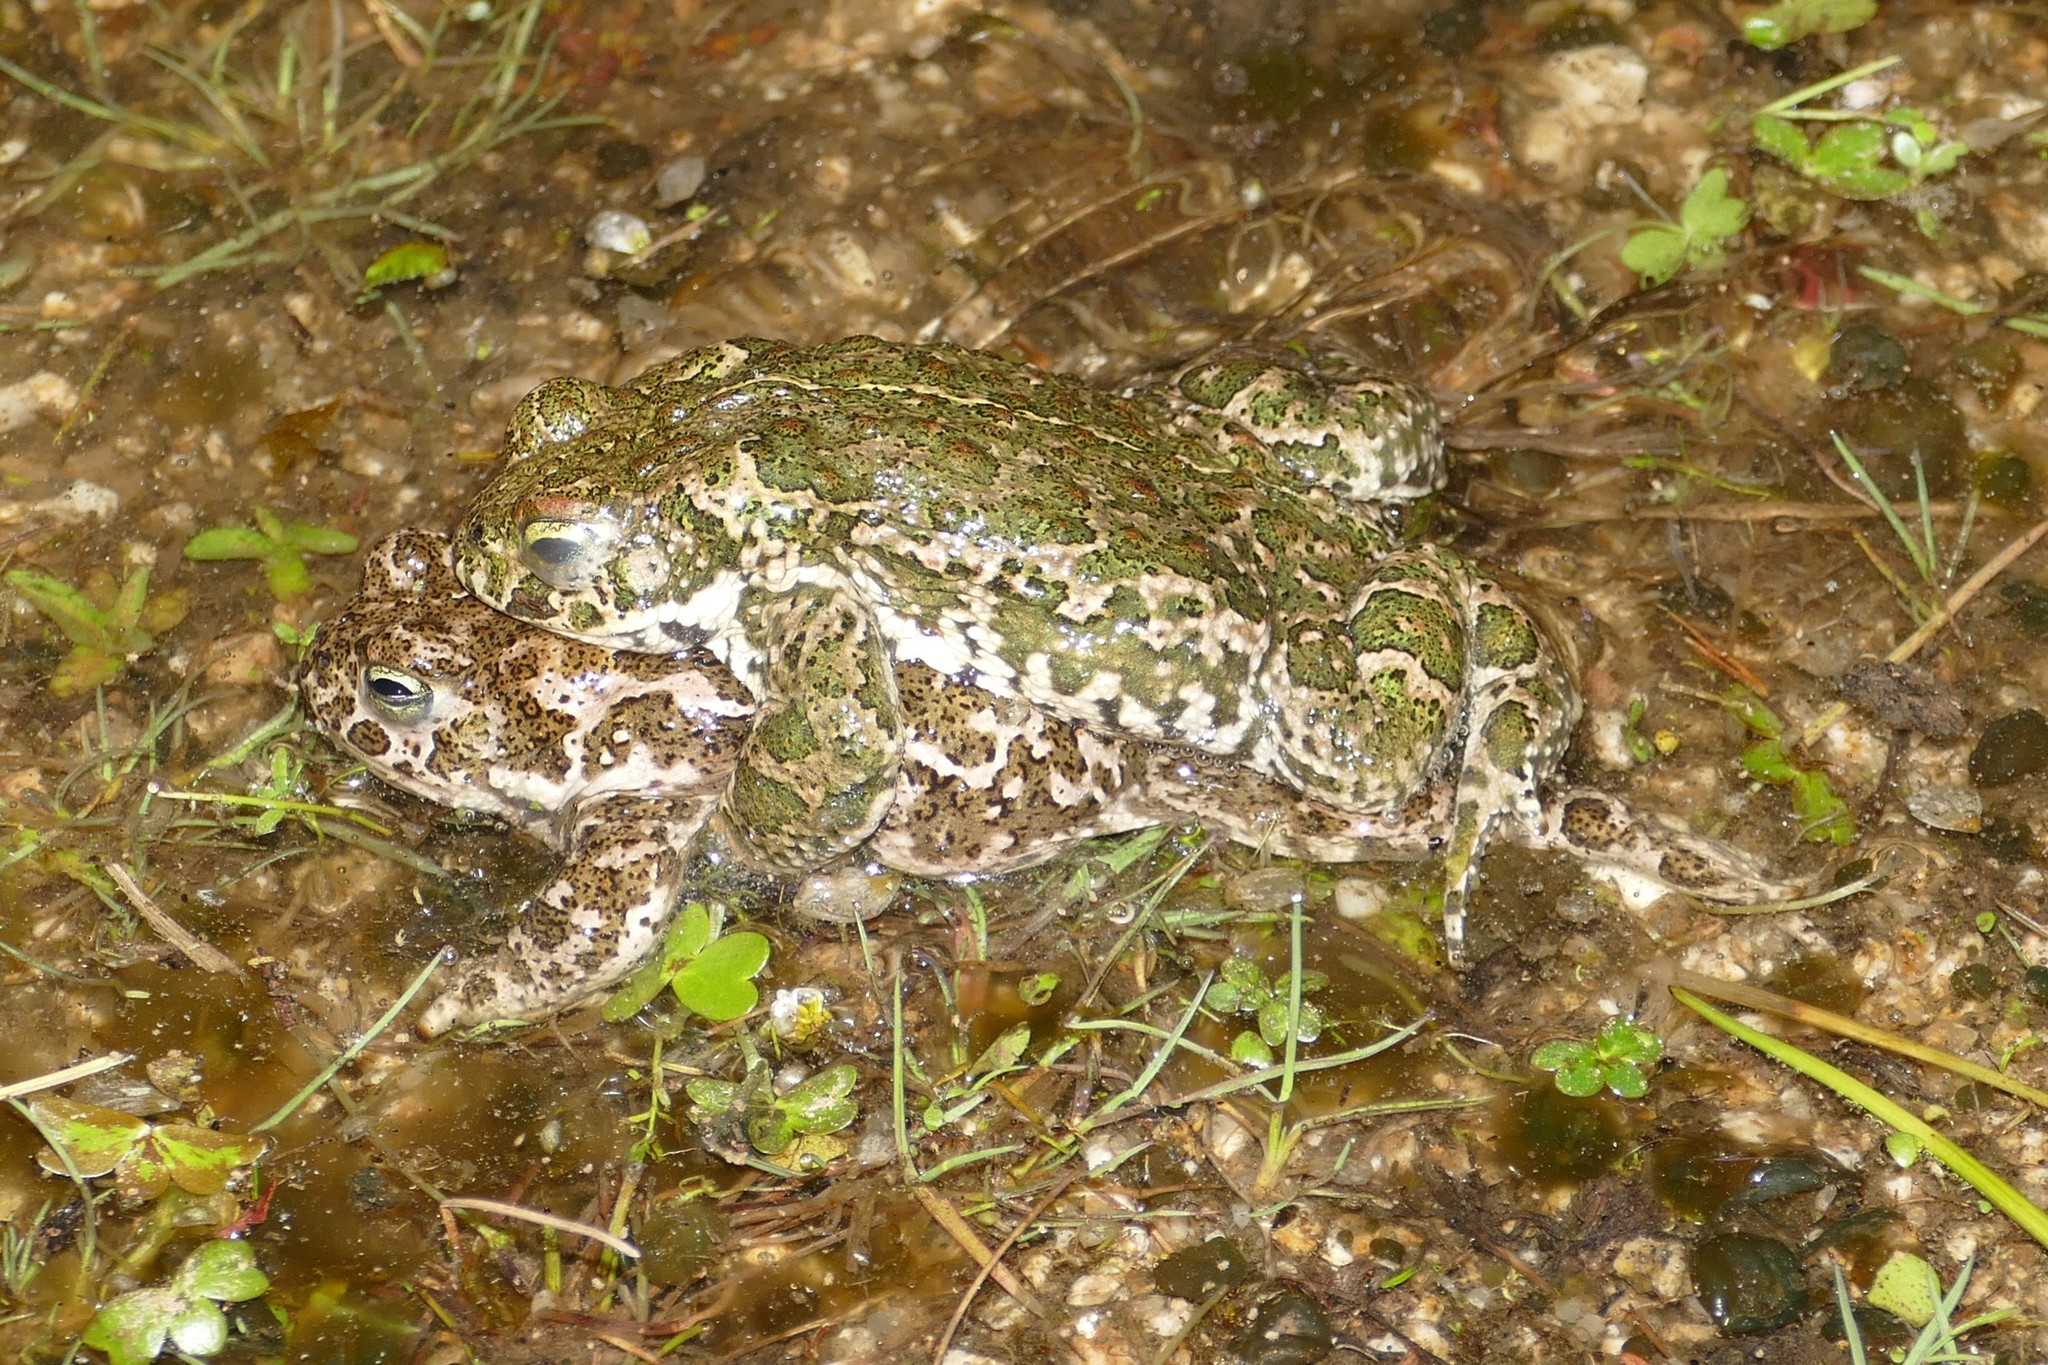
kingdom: Animalia
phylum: Chordata
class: Amphibia
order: Anura
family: Bufonidae
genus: Epidalea
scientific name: Epidalea calamita
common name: Natterjack toad
